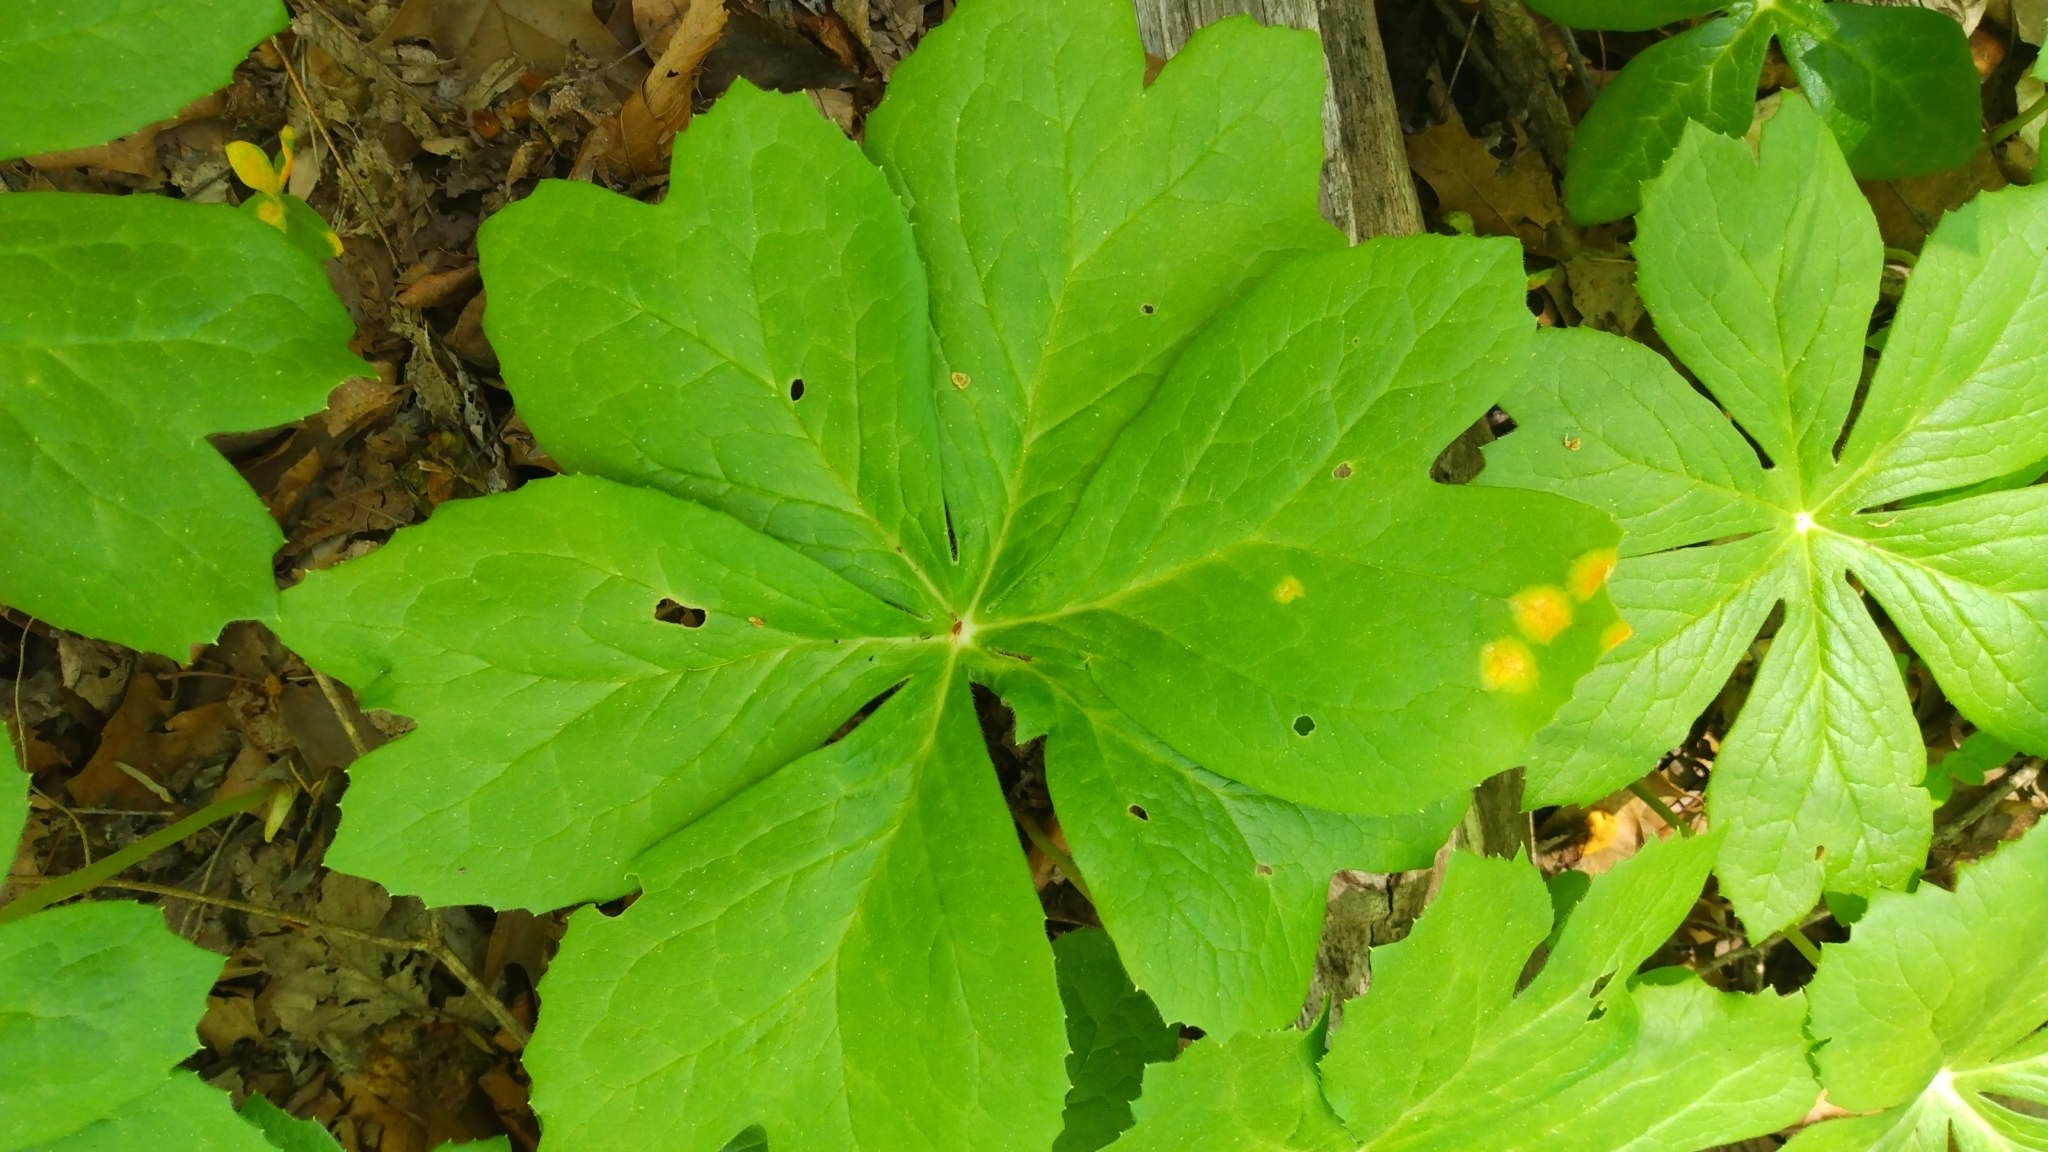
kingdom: Fungi
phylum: Basidiomycota
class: Pucciniomycetes
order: Pucciniales
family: Pucciniaceae
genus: Puccinia
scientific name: Puccinia podophylli
